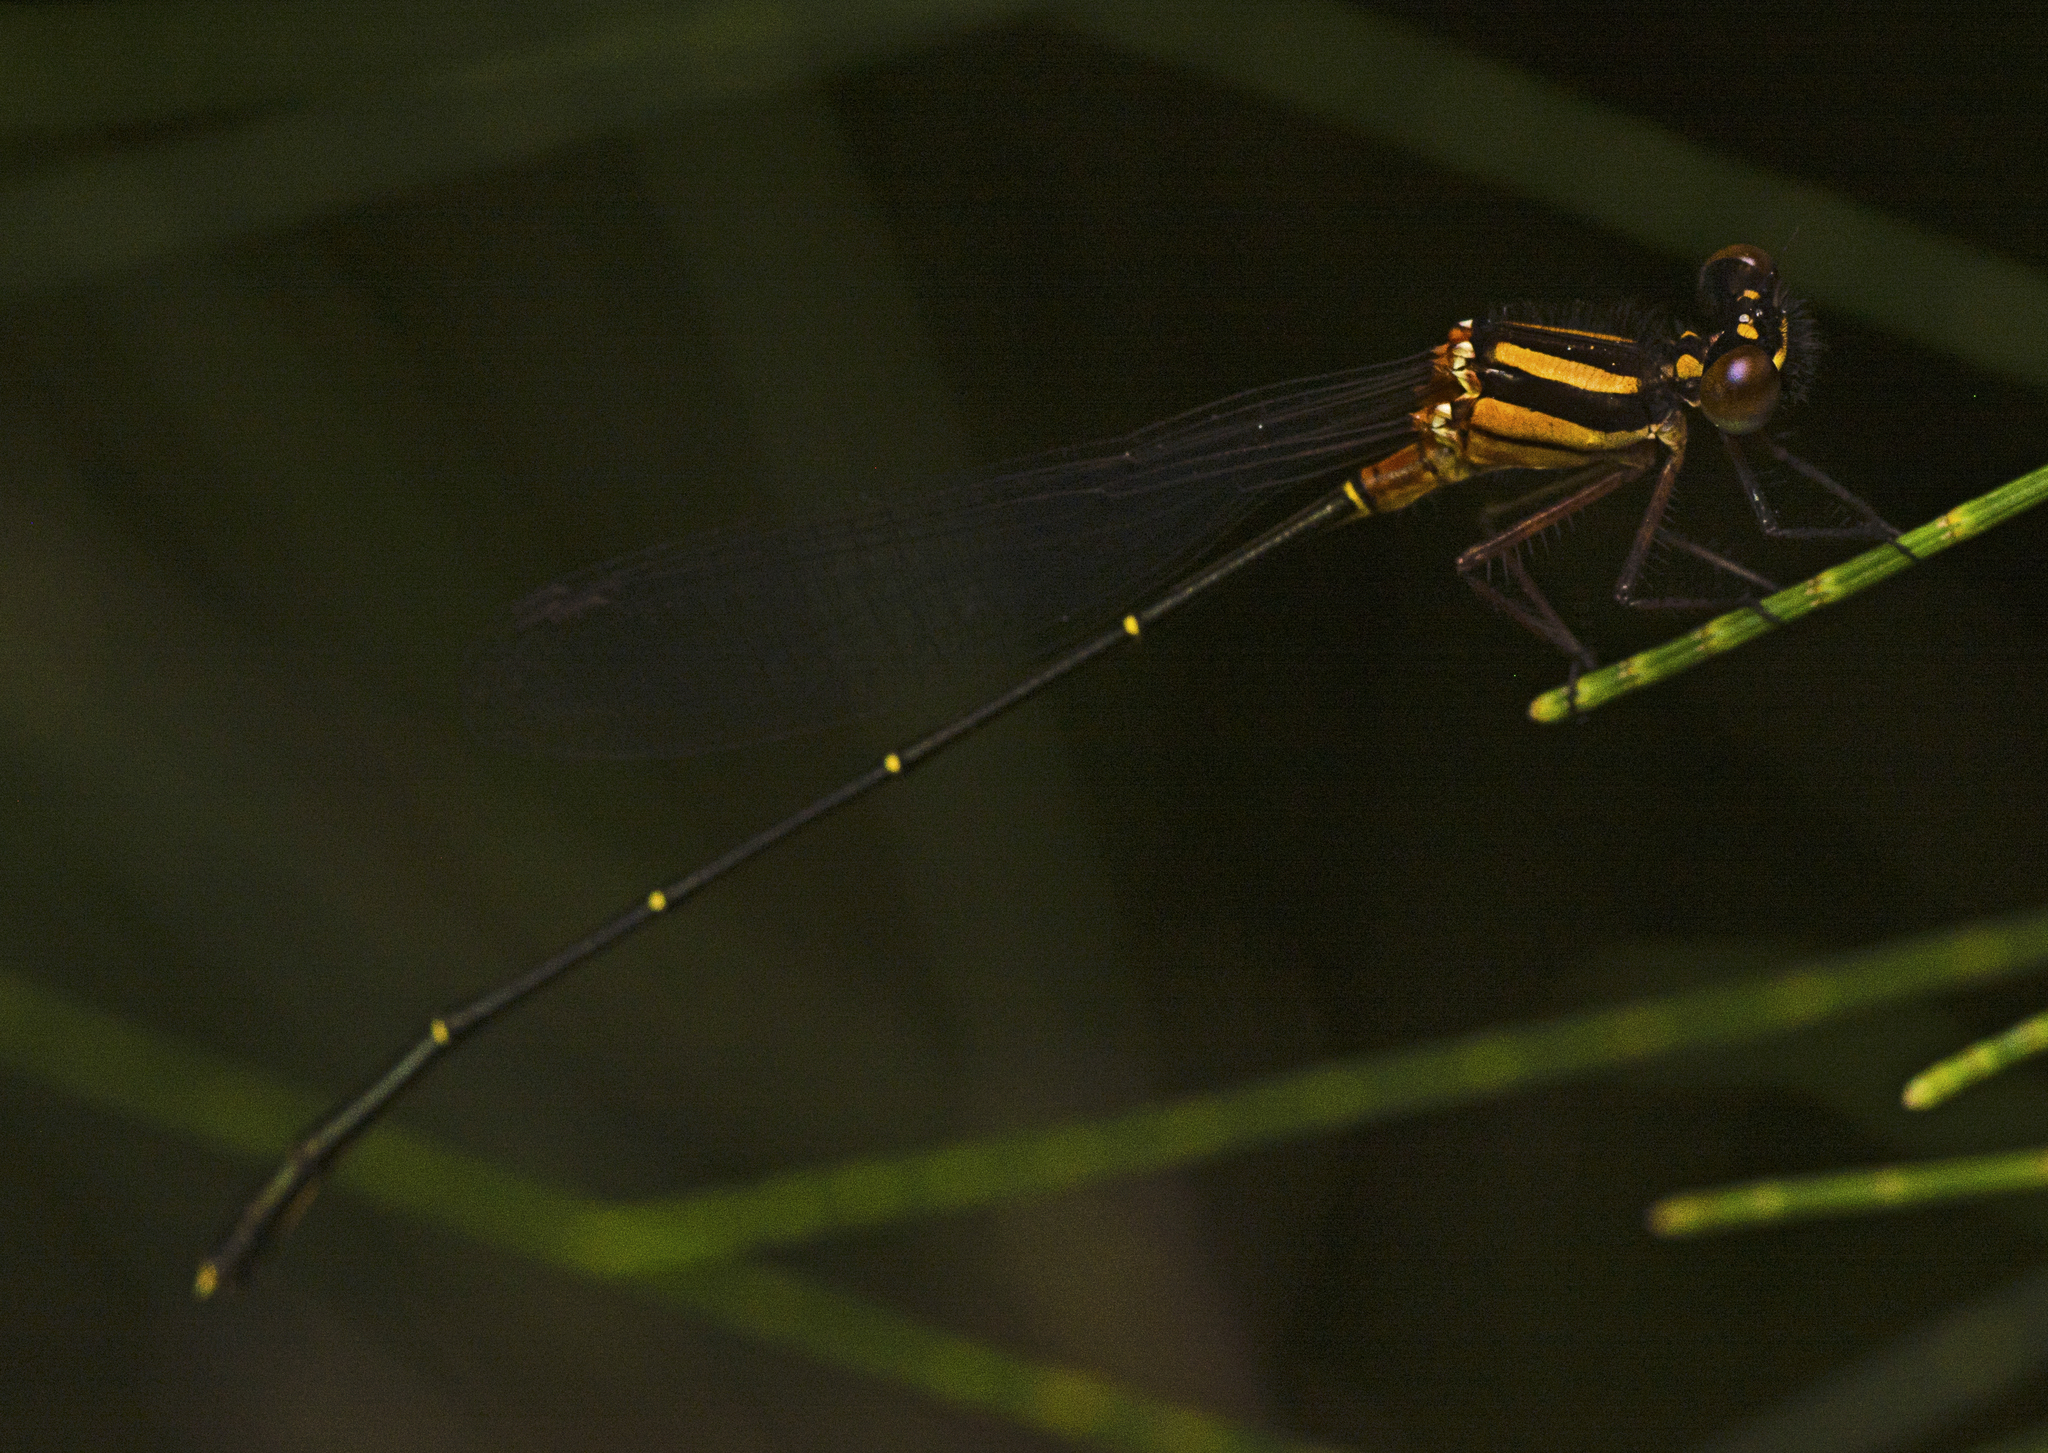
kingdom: Animalia
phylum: Arthropoda
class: Insecta
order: Odonata
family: Platycnemididae
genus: Nososticta
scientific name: Nososticta solida
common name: Orange threadtail
